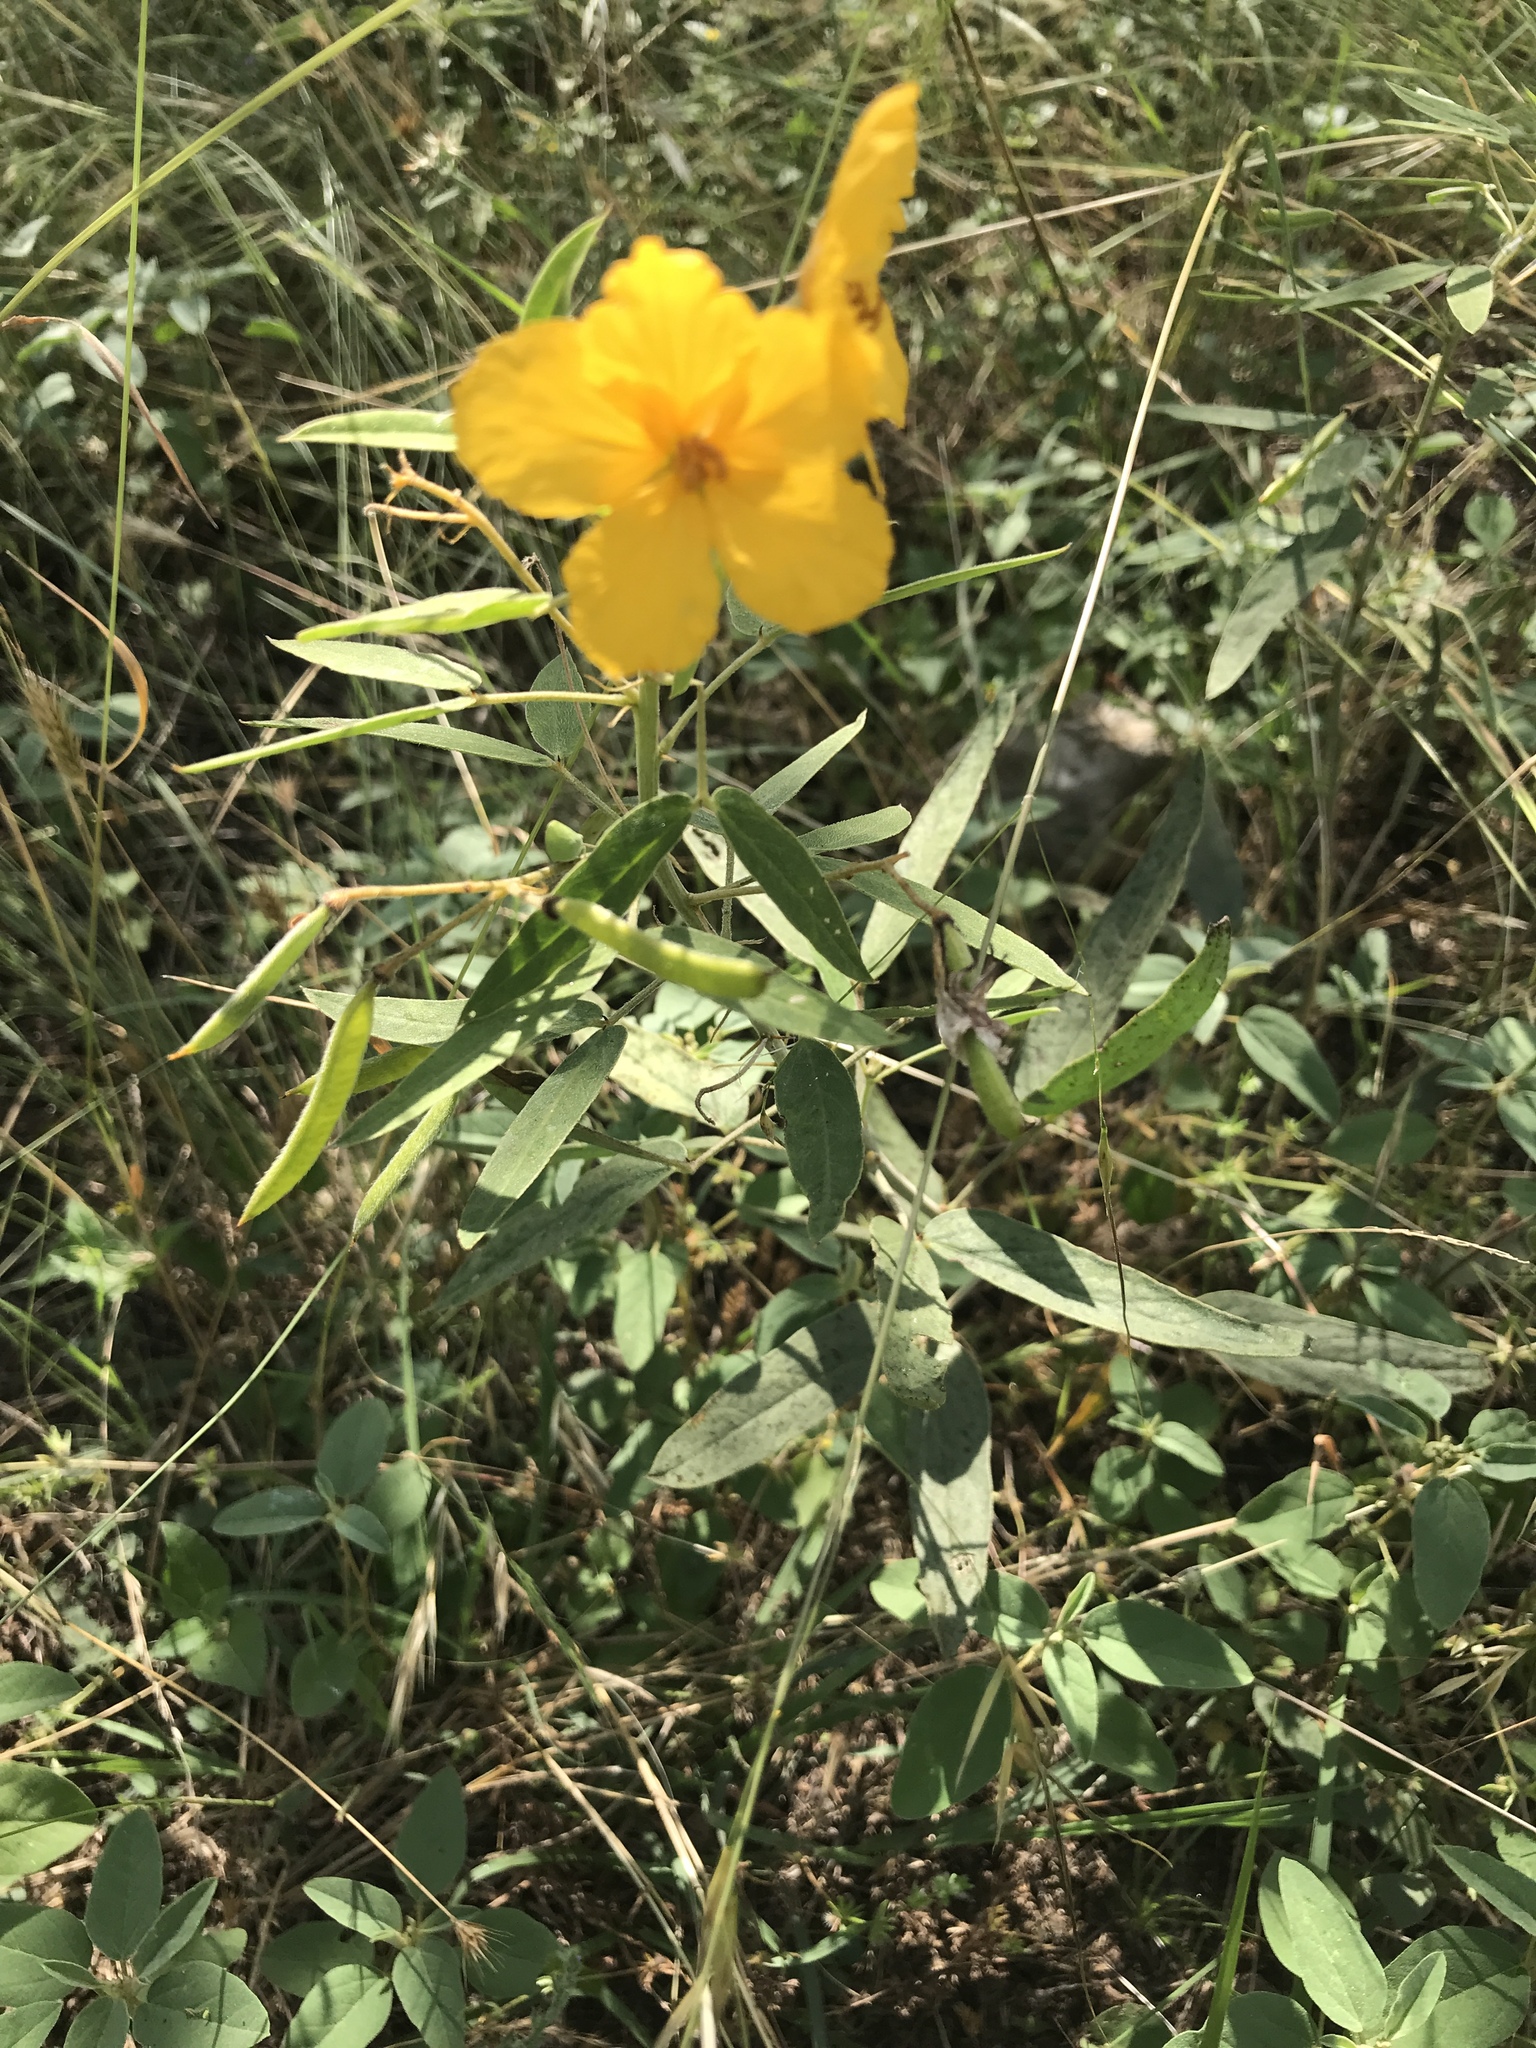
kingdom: Plantae
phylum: Tracheophyta
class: Magnoliopsida
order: Fabales
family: Fabaceae
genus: Senna
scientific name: Senna roemeriana
